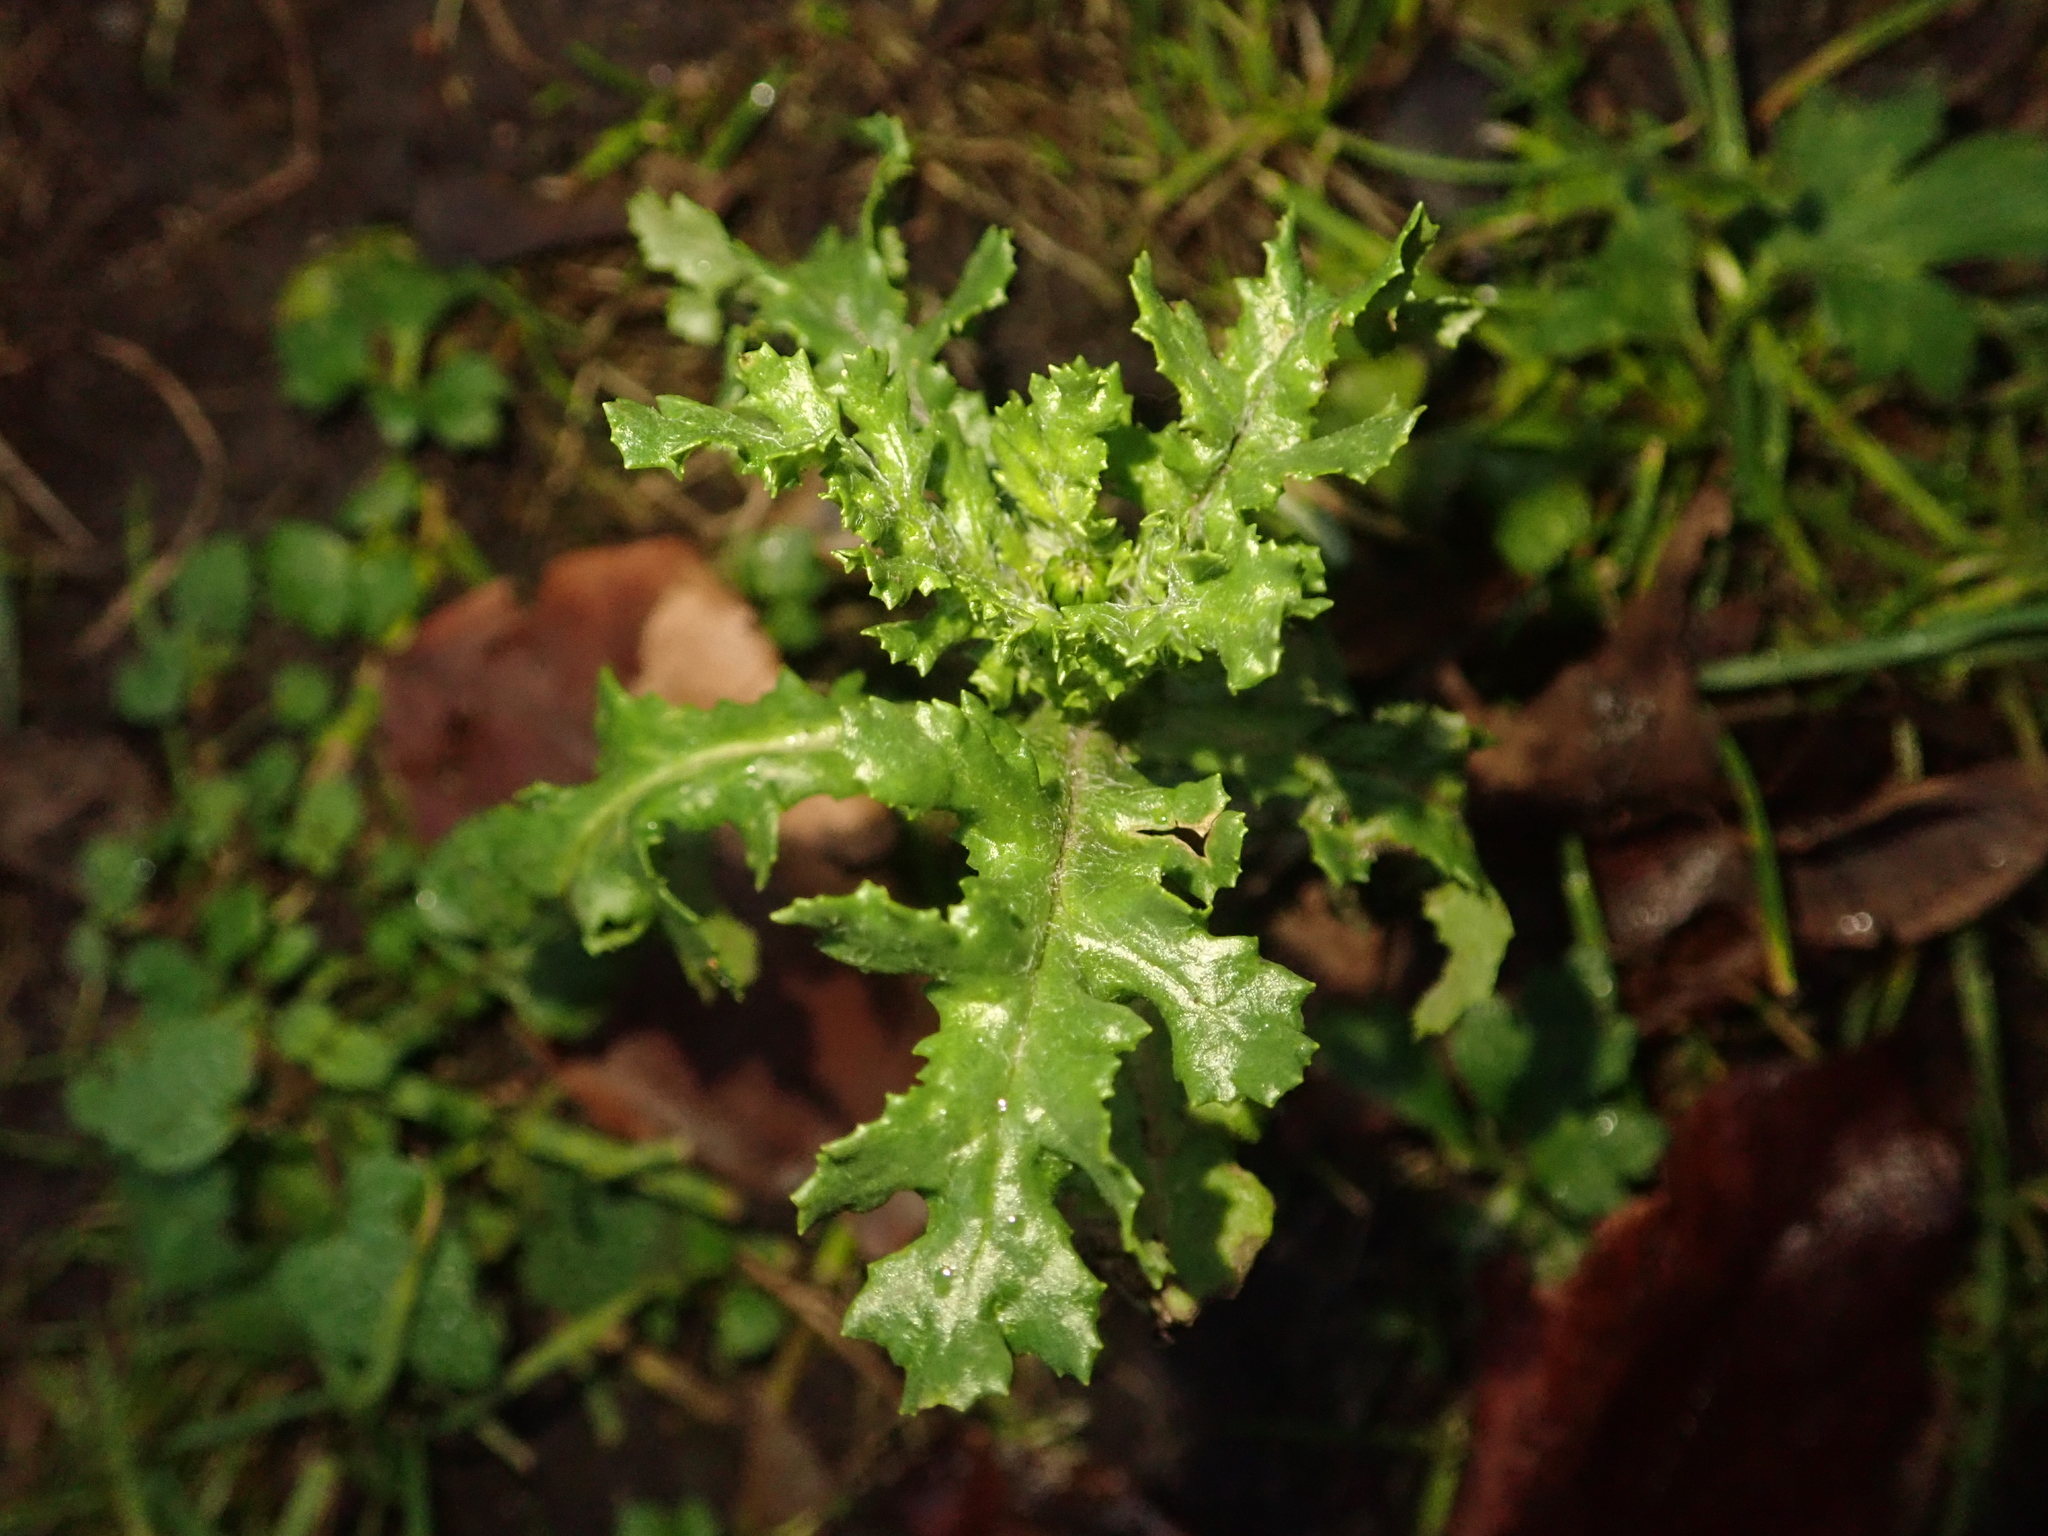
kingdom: Plantae
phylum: Tracheophyta
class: Magnoliopsida
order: Asterales
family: Asteraceae
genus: Senecio
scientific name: Senecio vulgaris
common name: Old-man-in-the-spring
